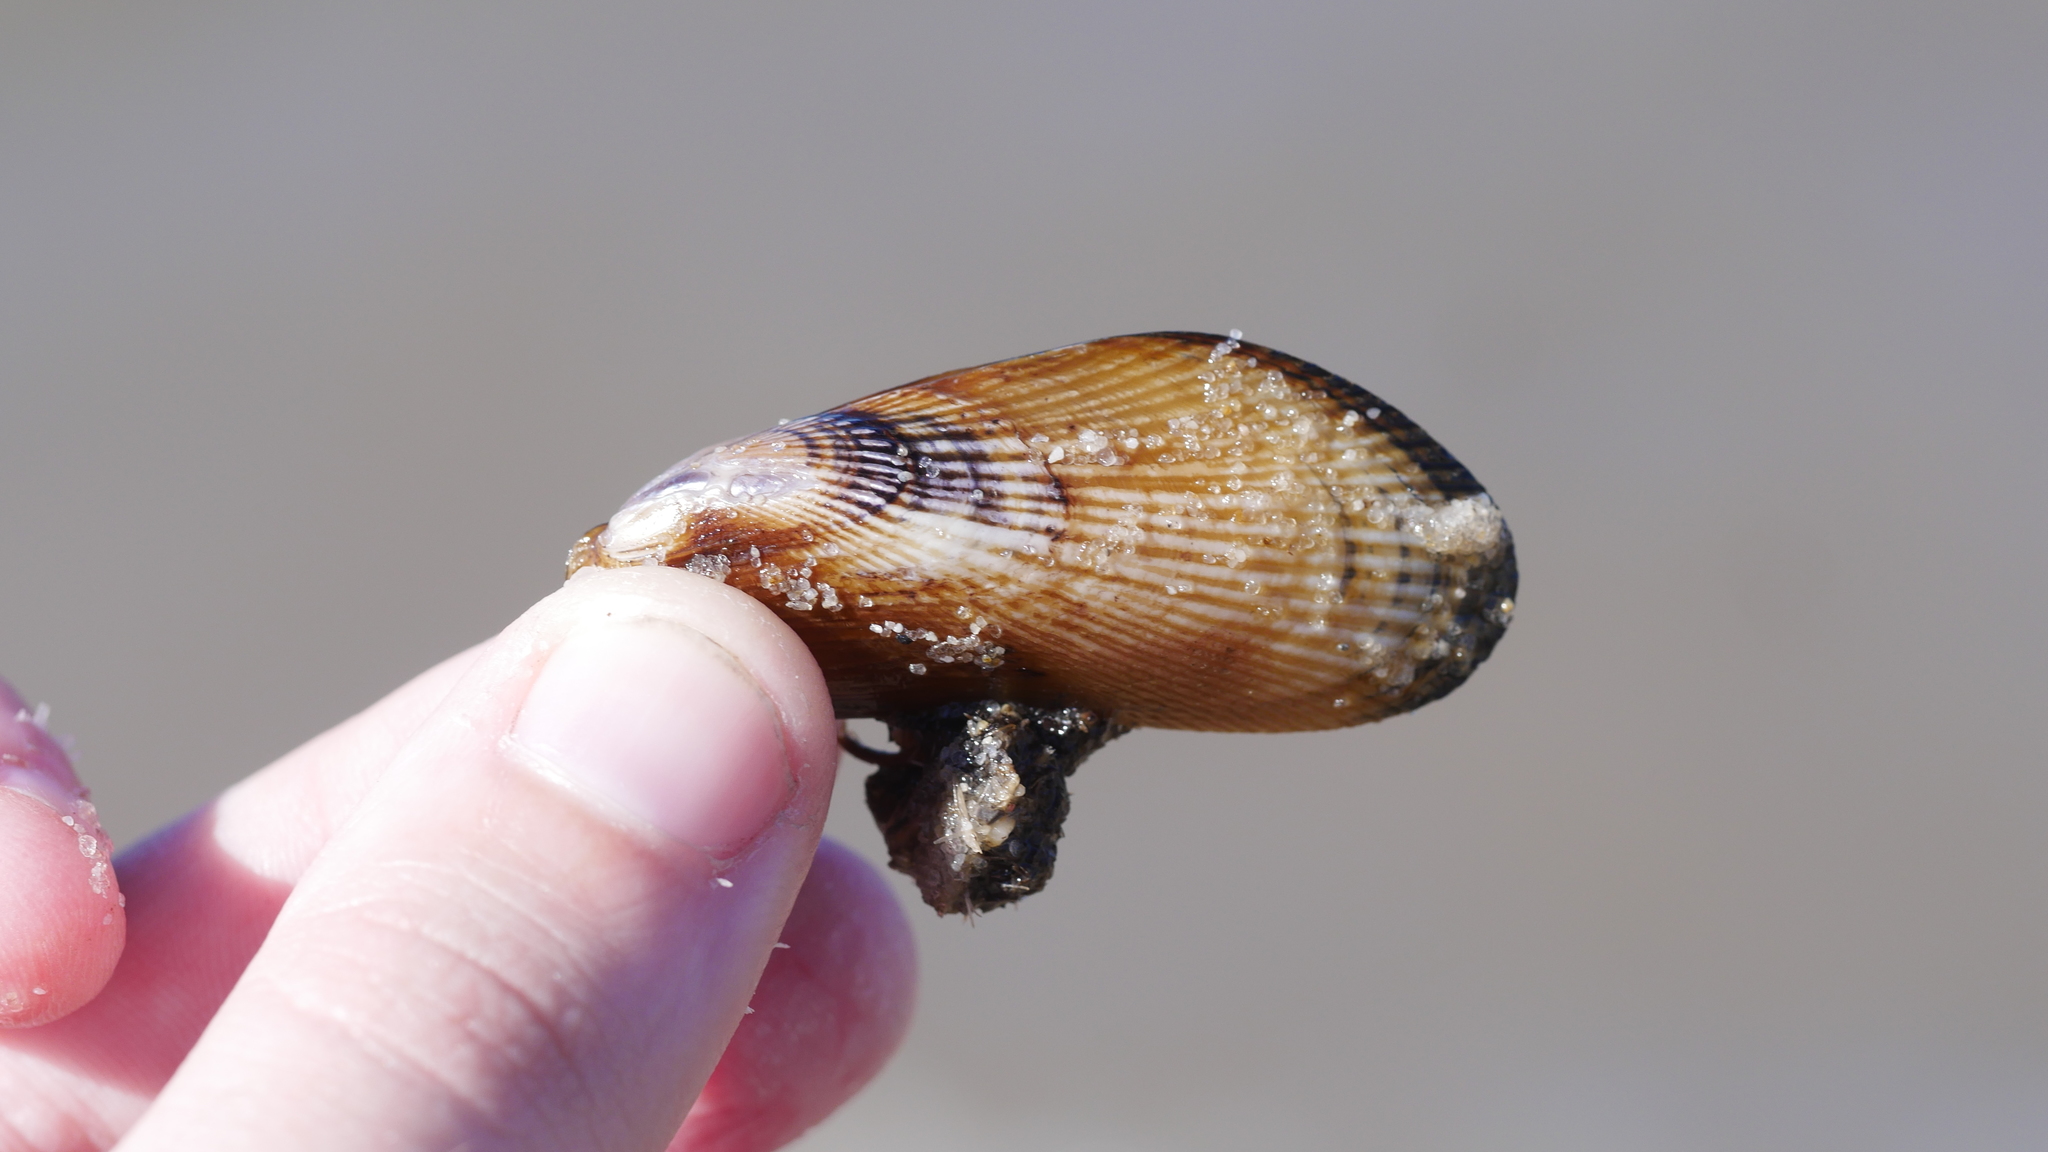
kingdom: Animalia
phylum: Mollusca
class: Bivalvia
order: Mytilida
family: Mytilidae
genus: Geukensia
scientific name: Geukensia demissa
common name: Ribbed mussel
